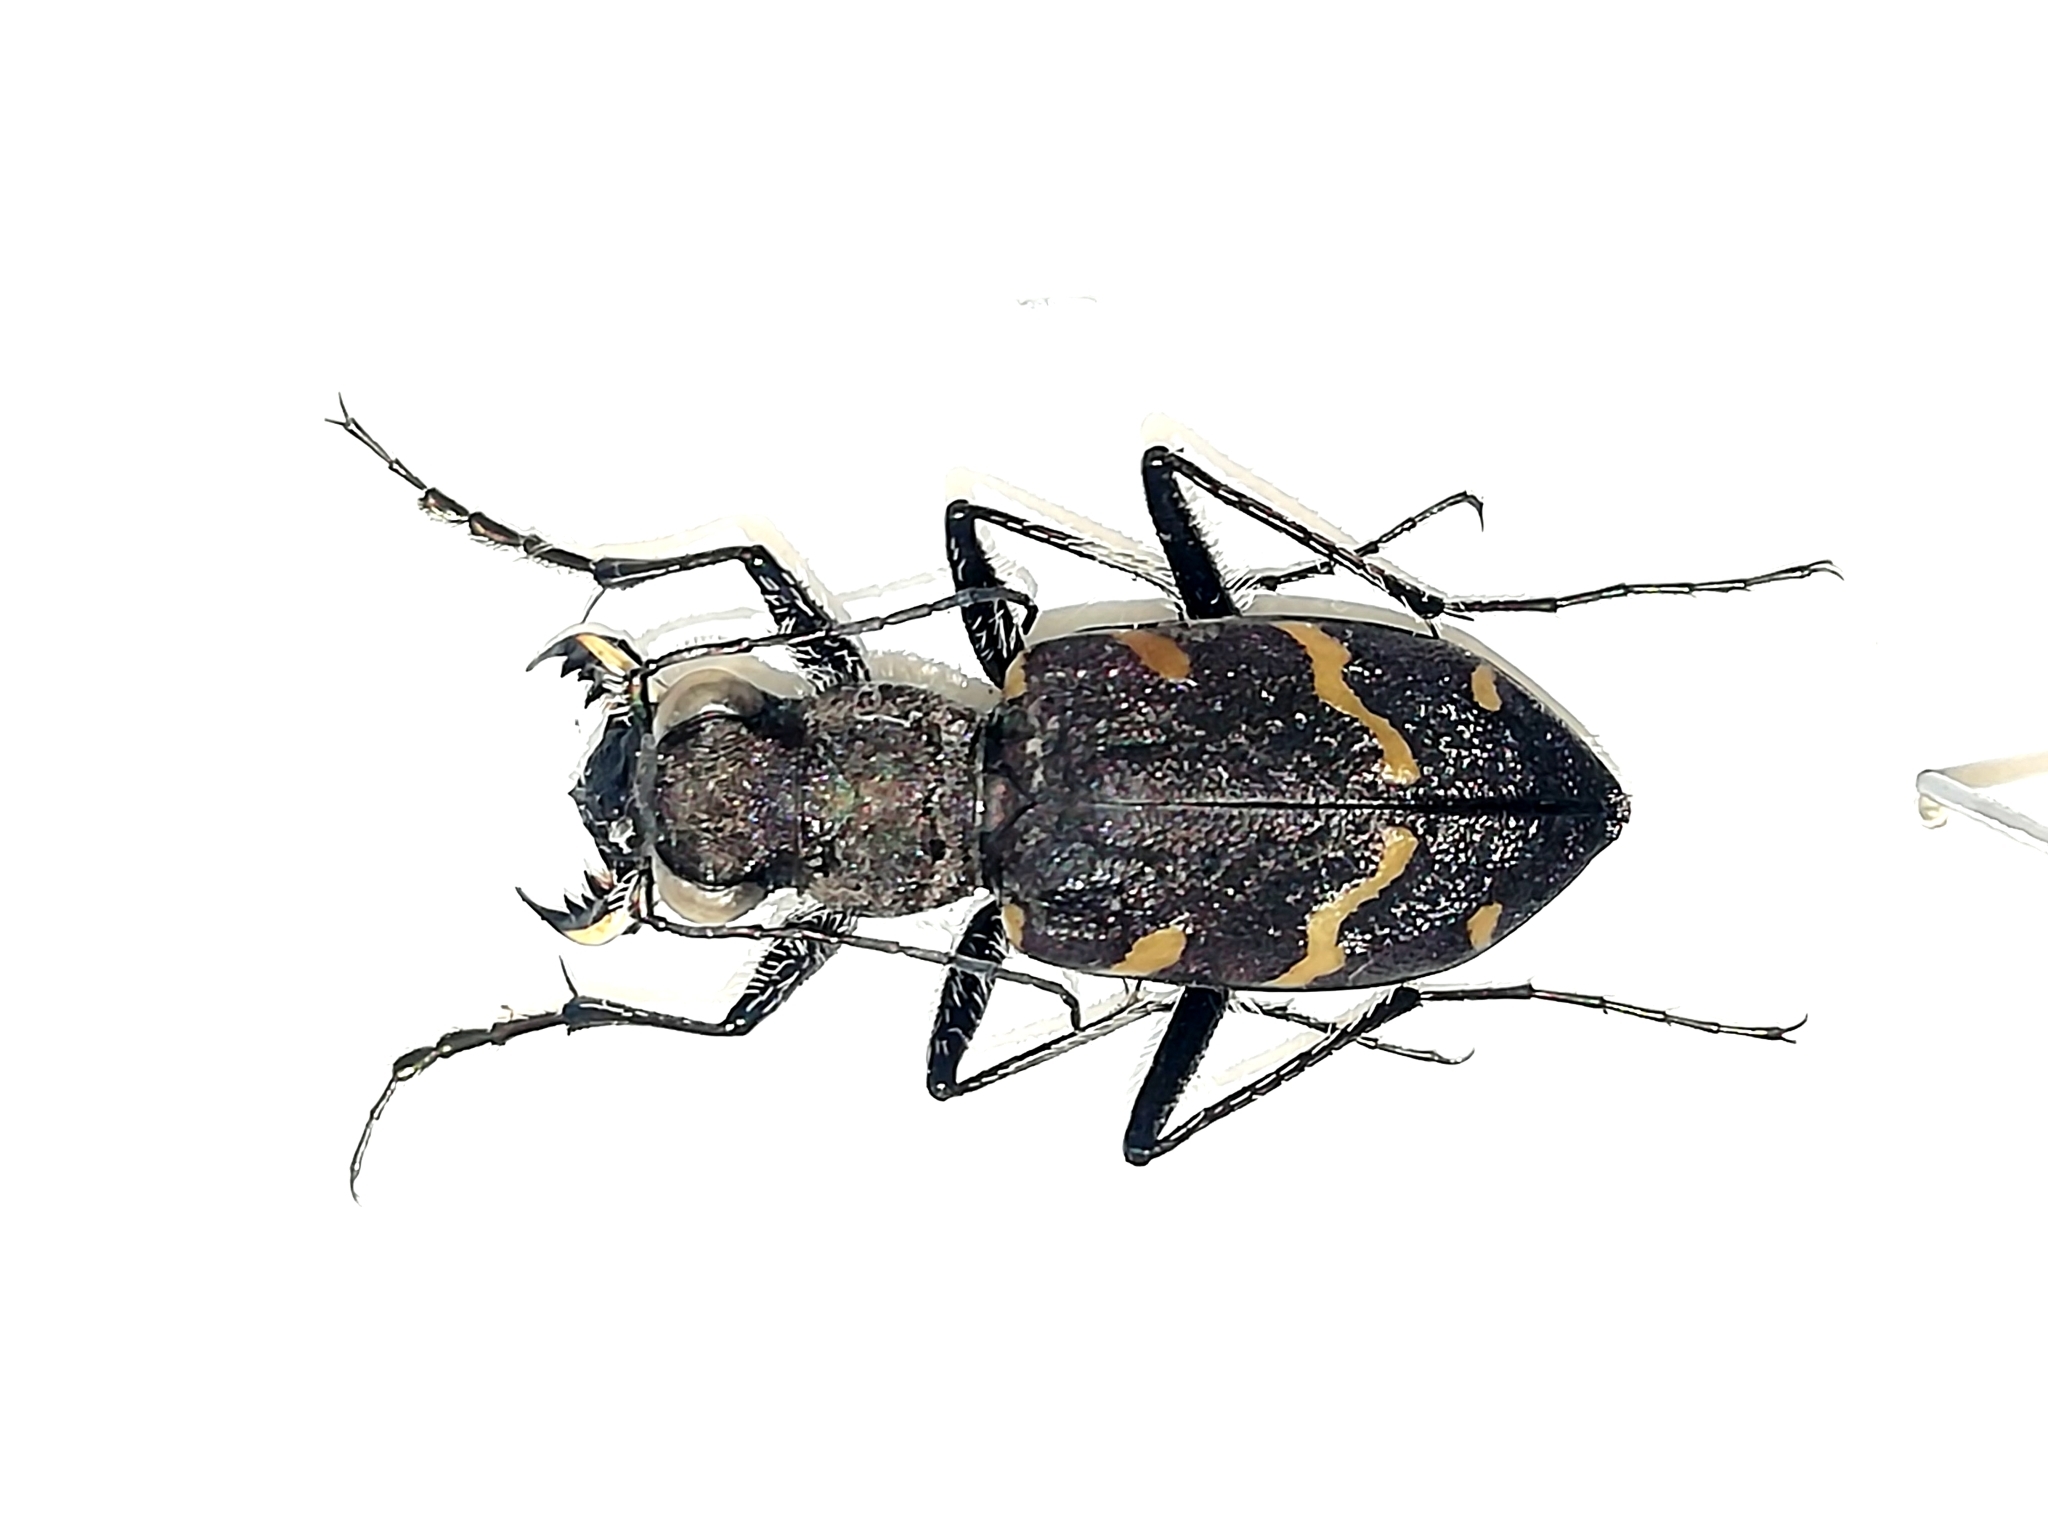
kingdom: Animalia
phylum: Arthropoda
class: Insecta
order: Coleoptera
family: Carabidae
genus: Cicindela
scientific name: Cicindela sylvatica
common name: Heath tiger beetle
